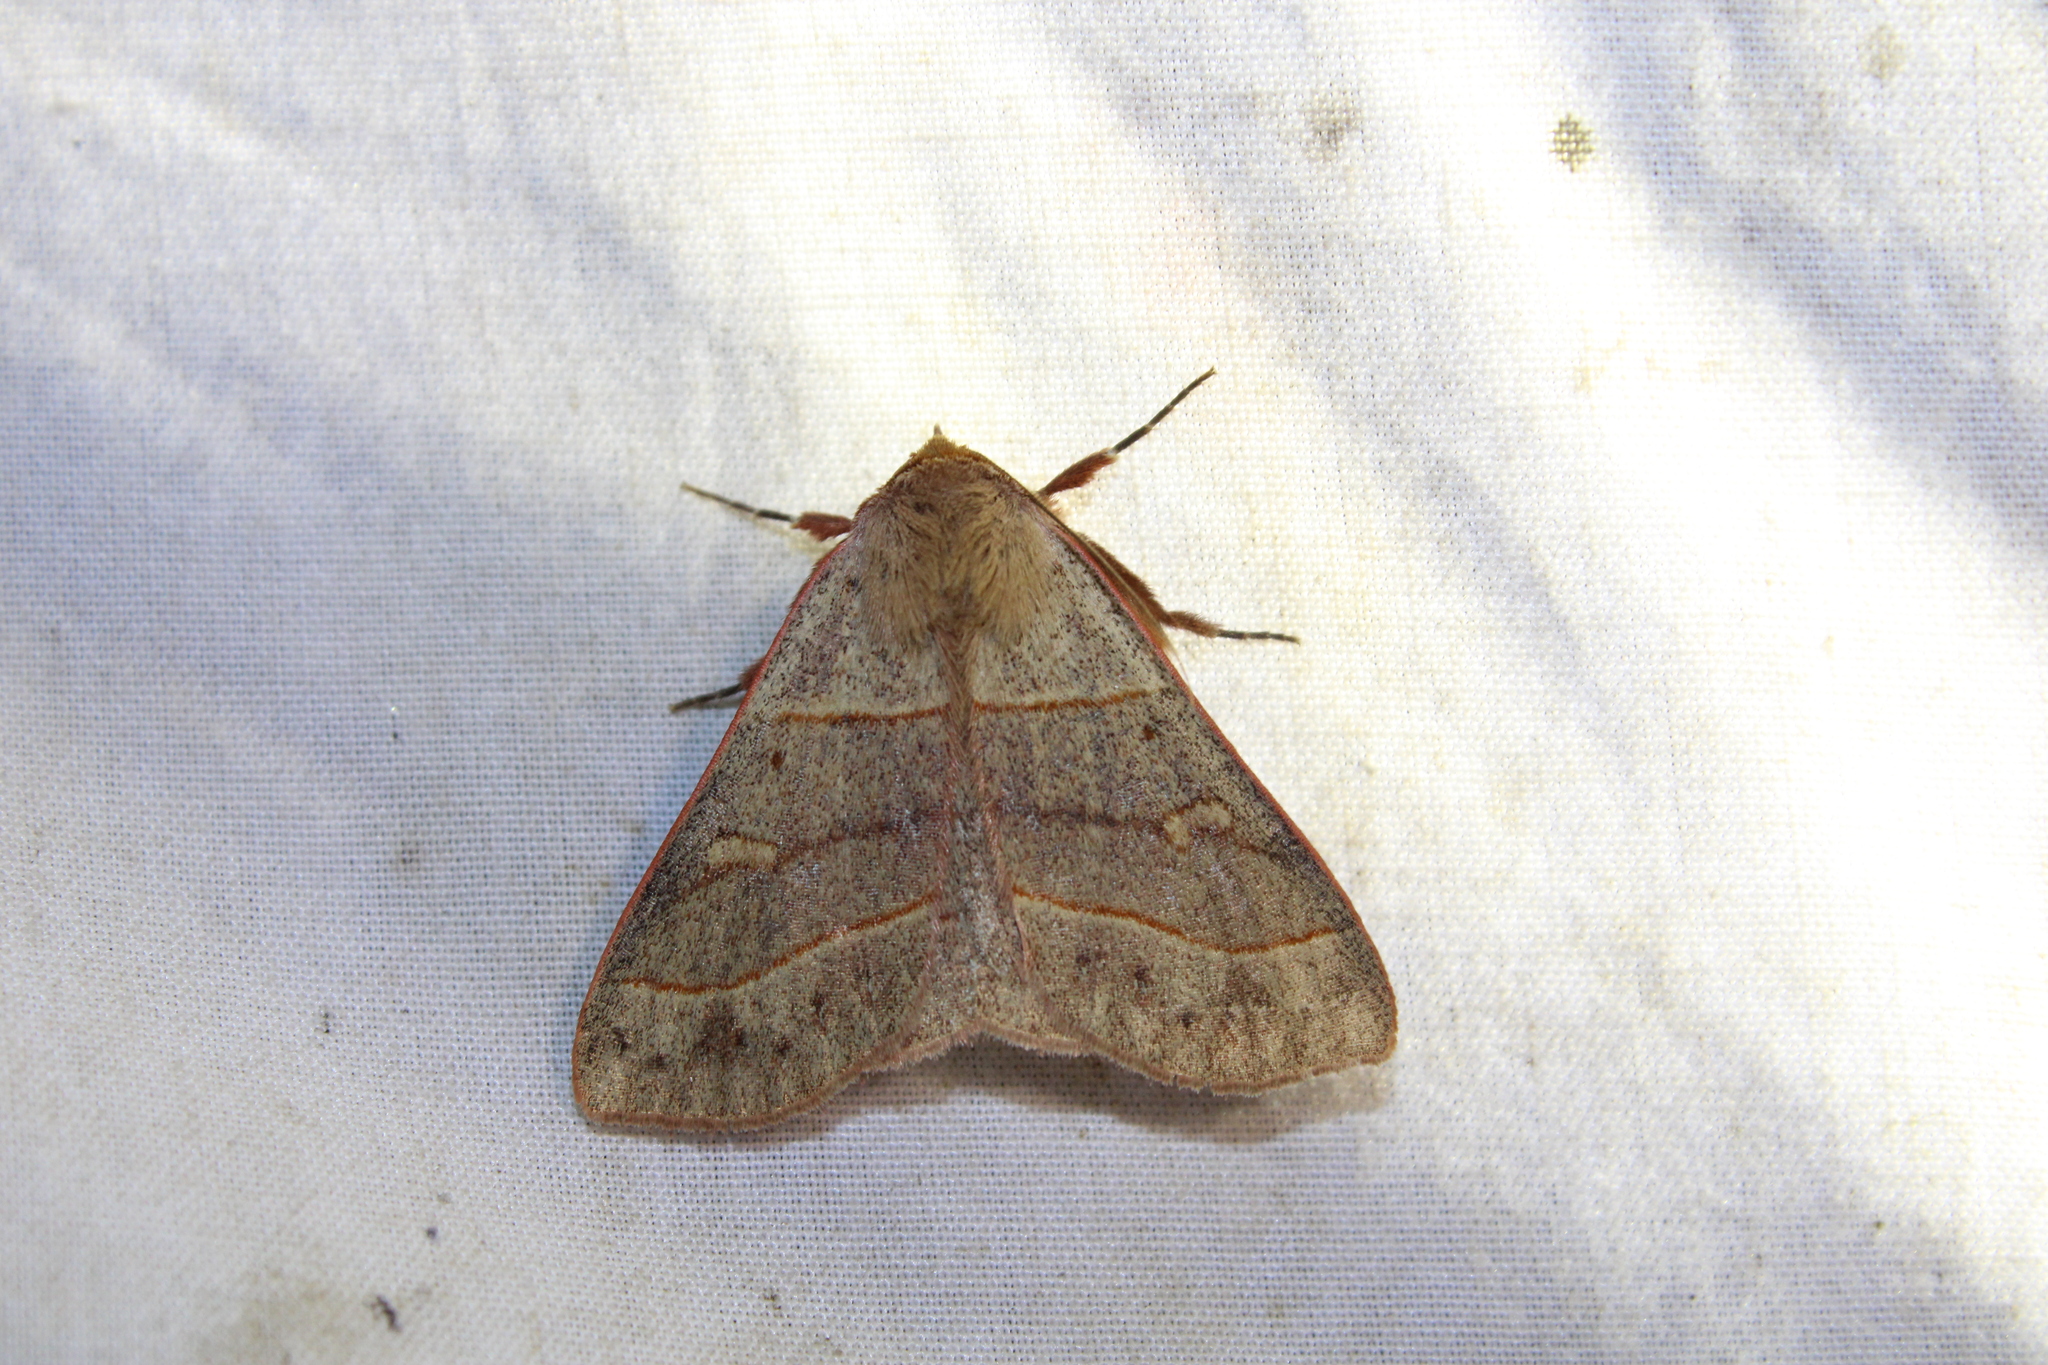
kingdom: Animalia
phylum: Arthropoda
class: Insecta
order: Lepidoptera
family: Erebidae
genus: Panopoda
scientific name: Panopoda rufimargo
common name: Red-lined panopoda moth
